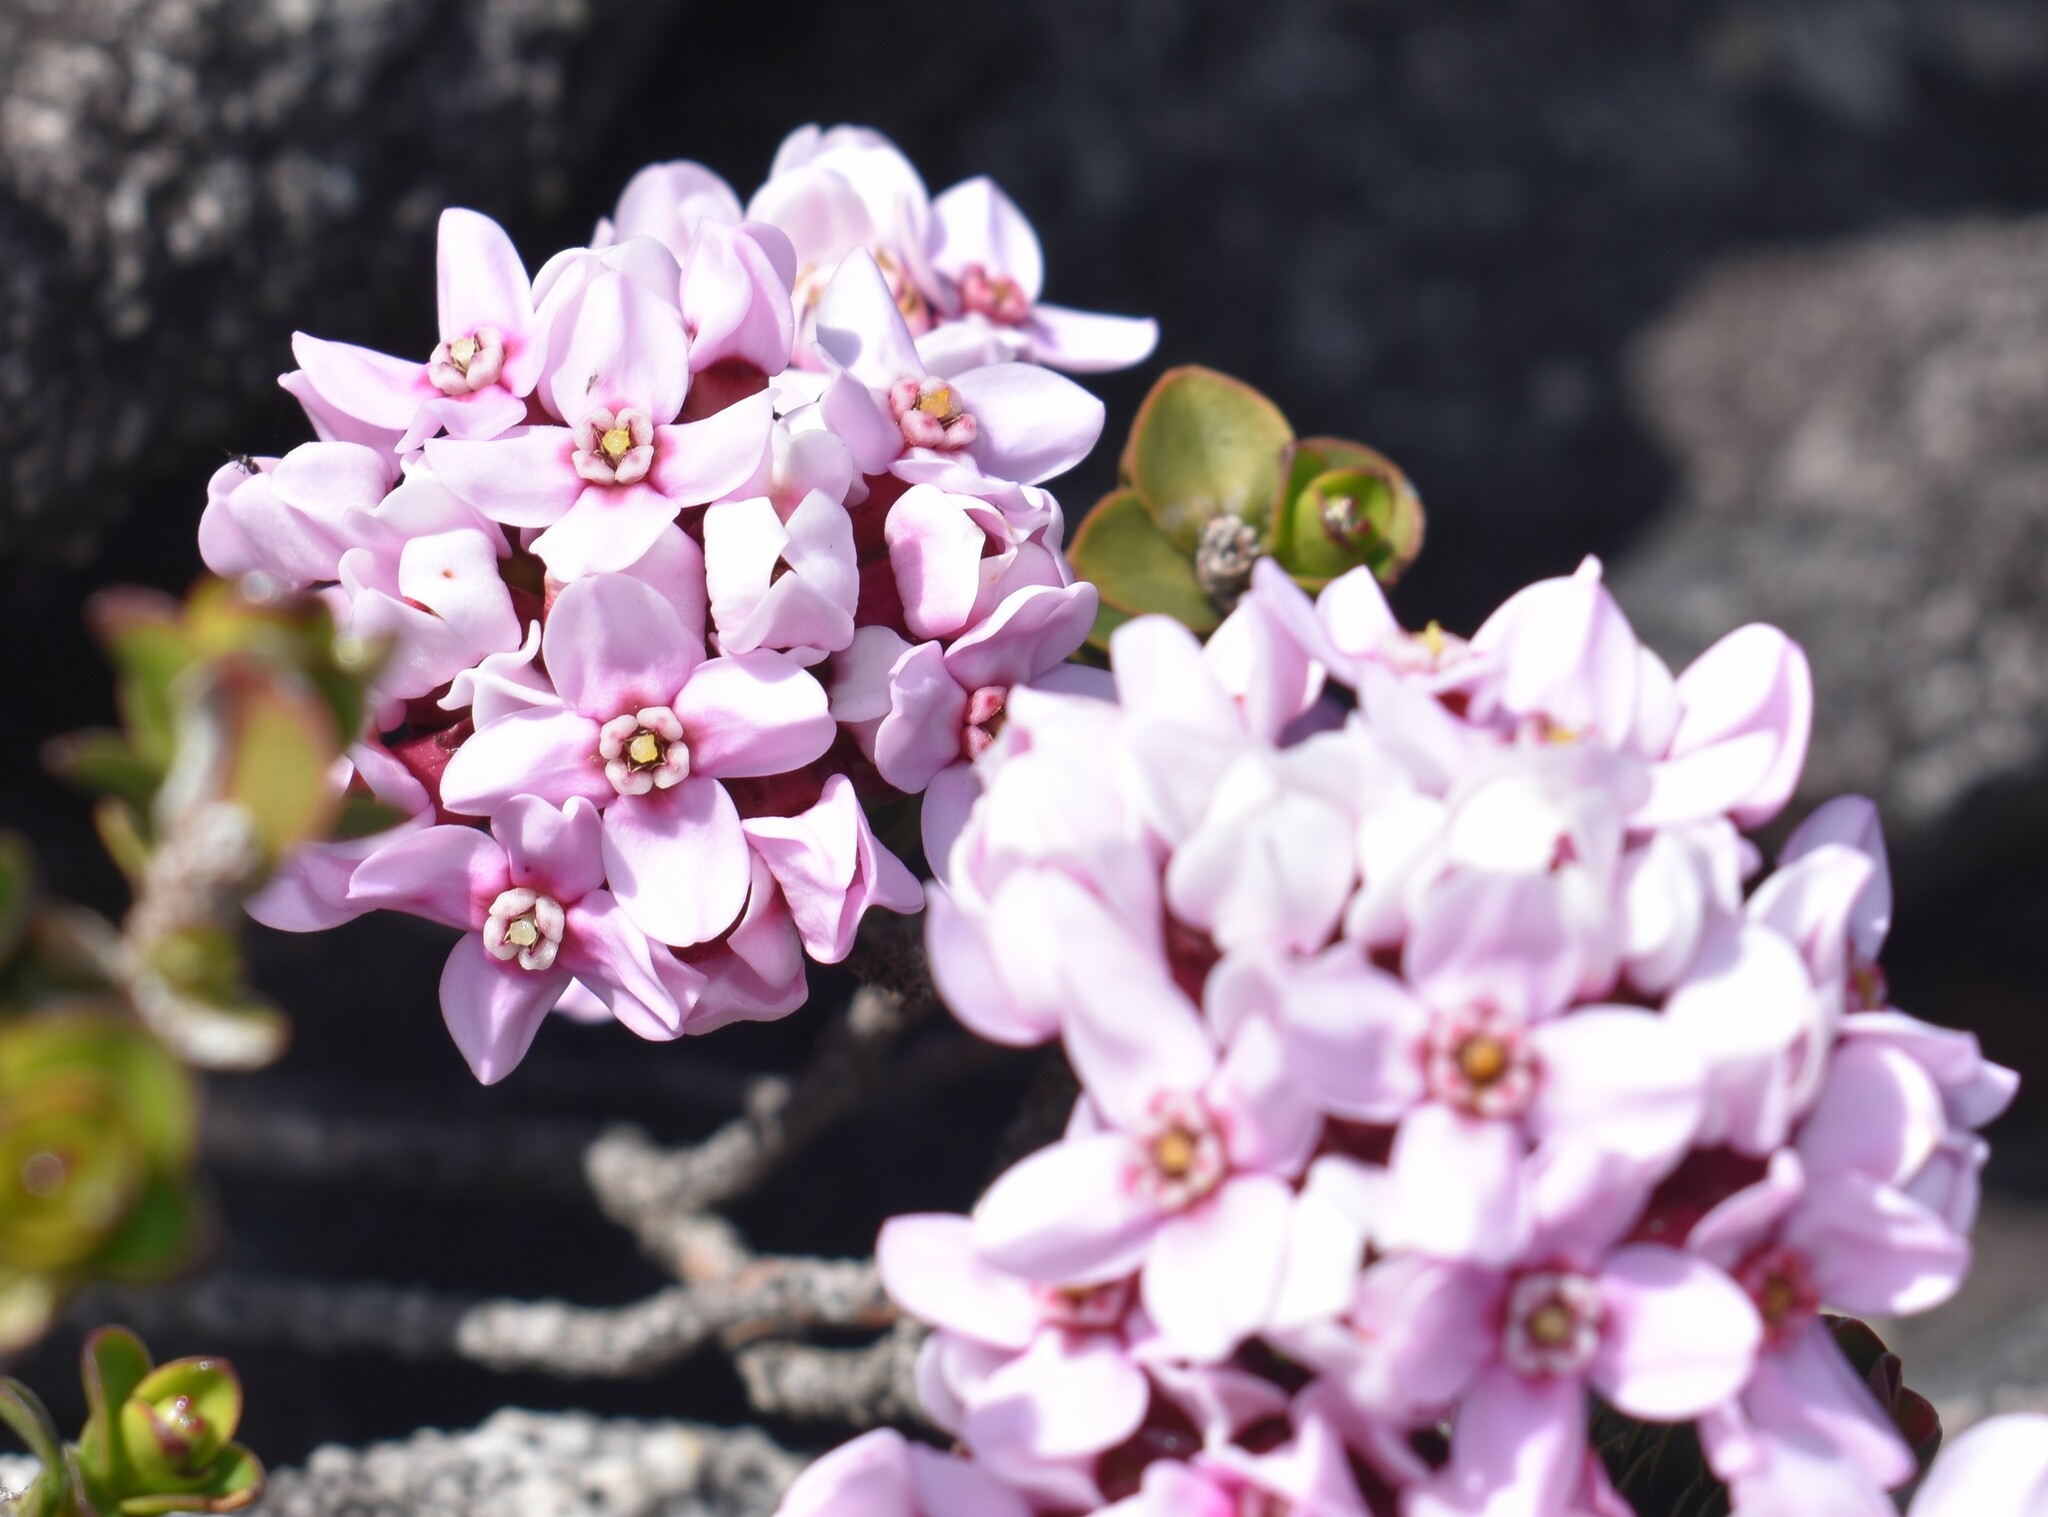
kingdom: Plantae
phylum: Tracheophyta
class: Magnoliopsida
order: Myrtales
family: Penaeaceae
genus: Sonderothamnus
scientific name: Sonderothamnus petraeus
